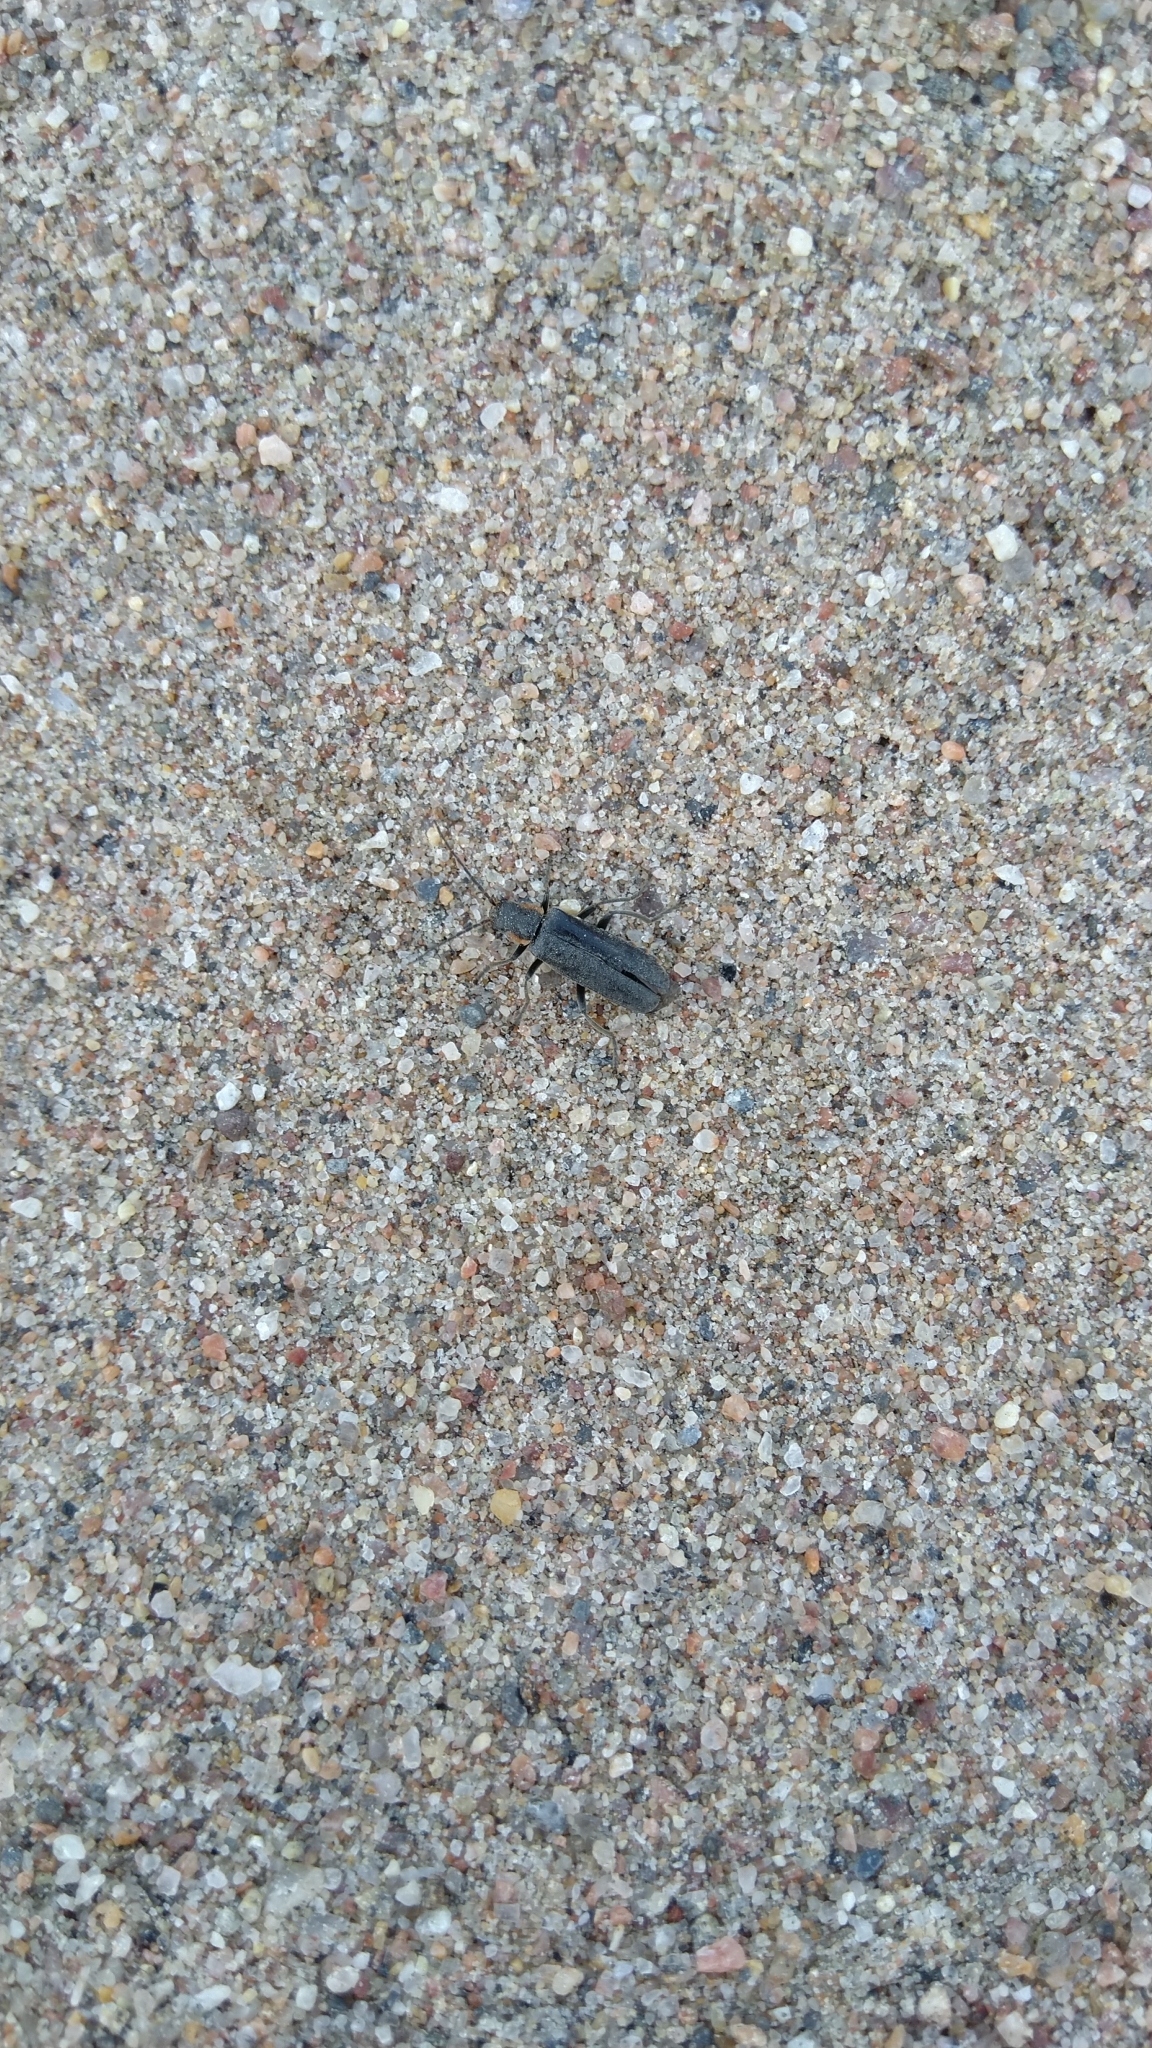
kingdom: Animalia
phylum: Arthropoda
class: Insecta
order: Coleoptera
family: Cantharidae
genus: Cantharis
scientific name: Cantharis obscura
